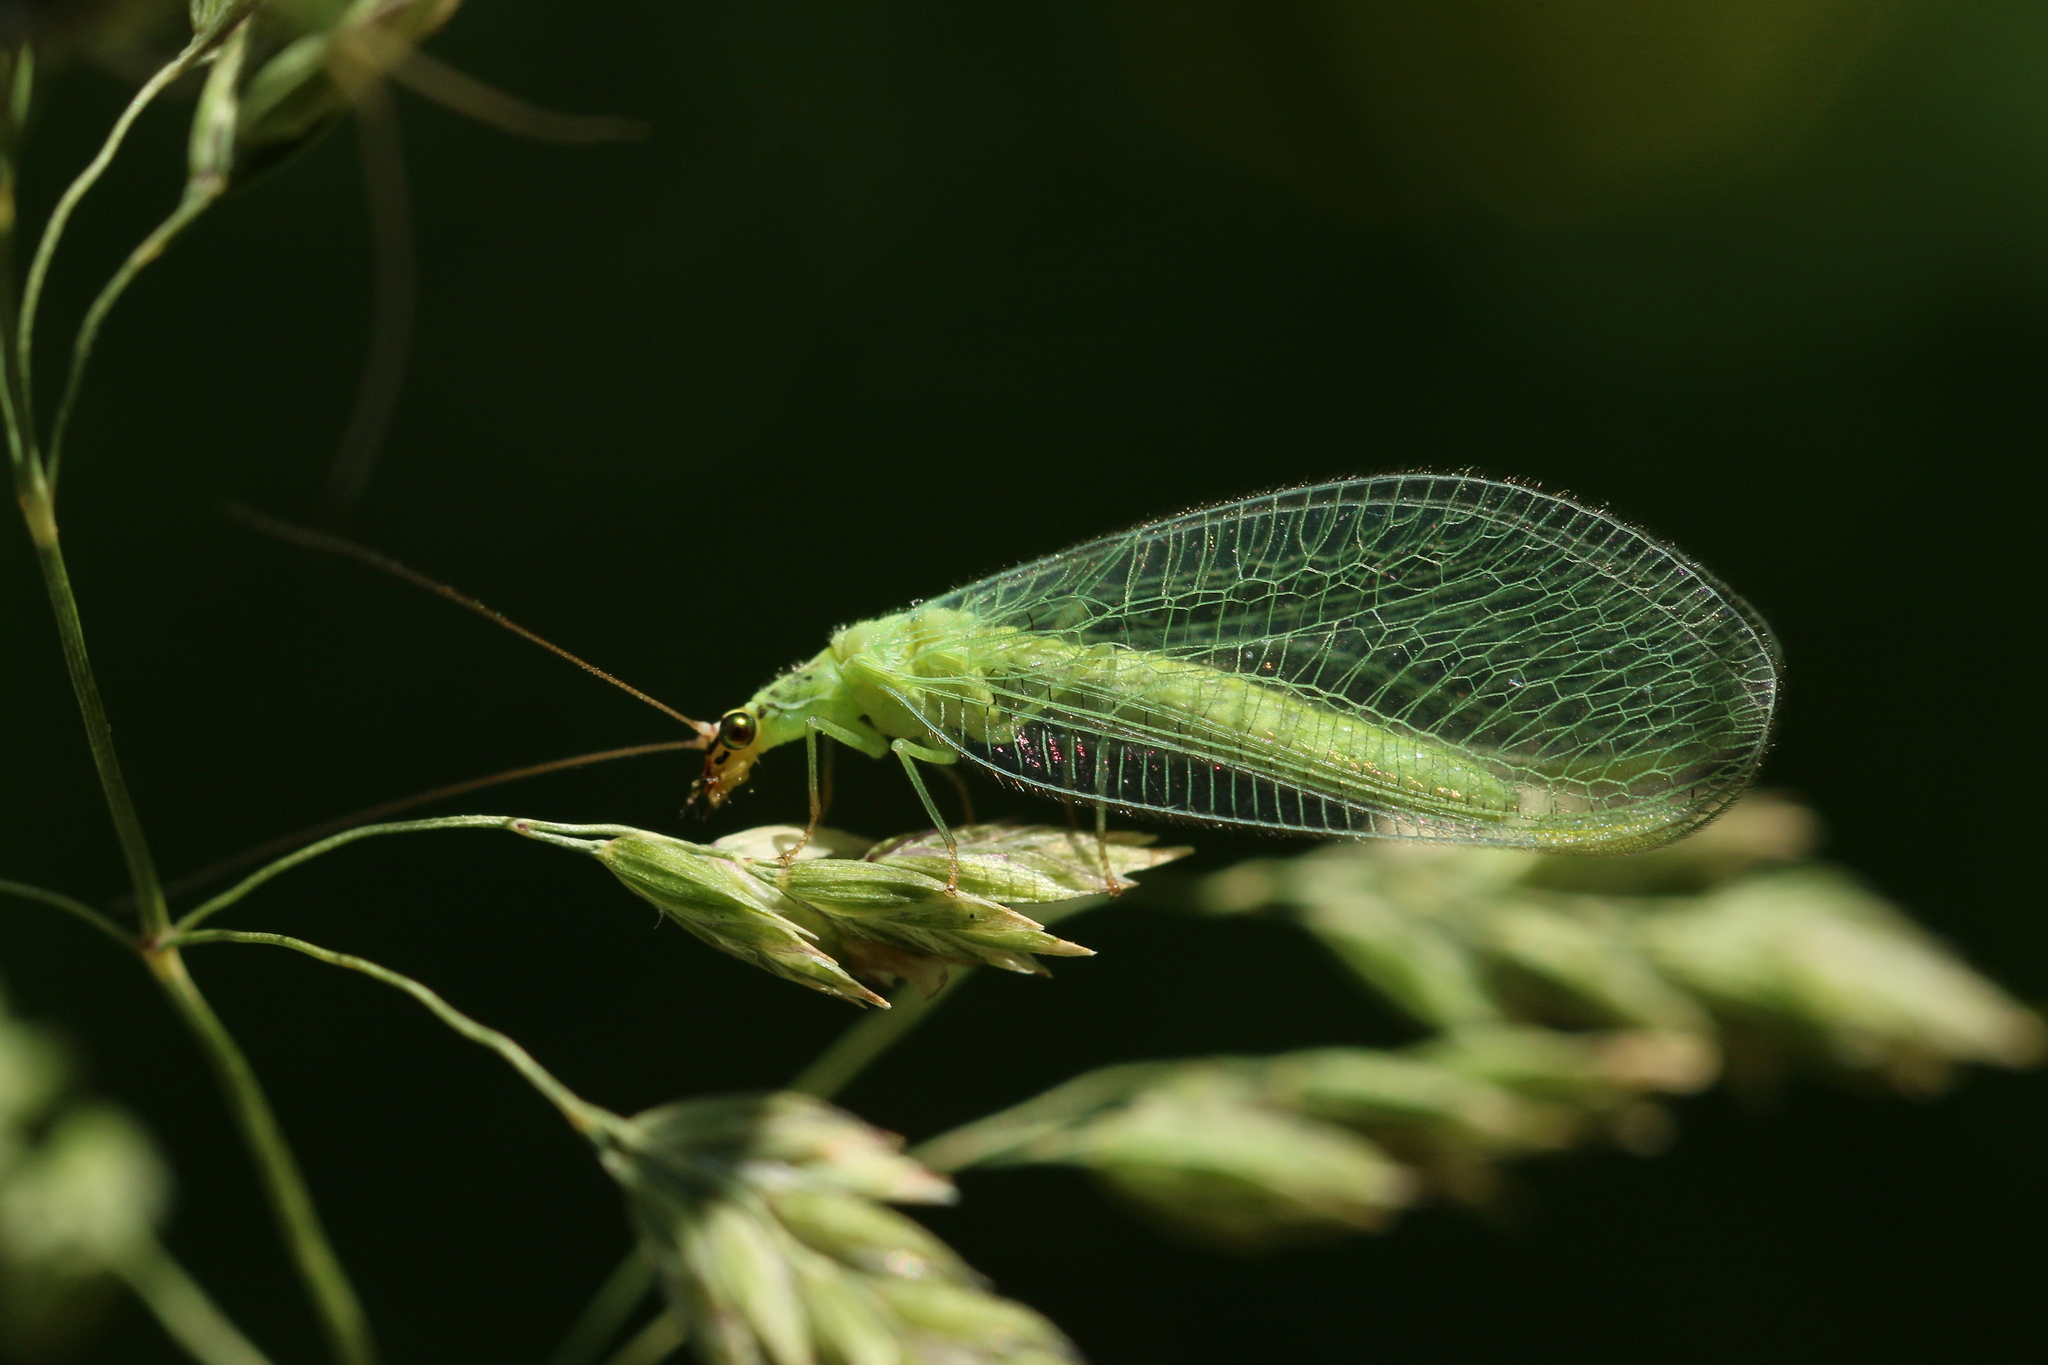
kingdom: Animalia
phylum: Arthropoda
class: Insecta
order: Neuroptera
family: Chrysopidae
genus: Chrysopa
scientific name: Chrysopa oculata
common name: Golden-eyed lacewing
